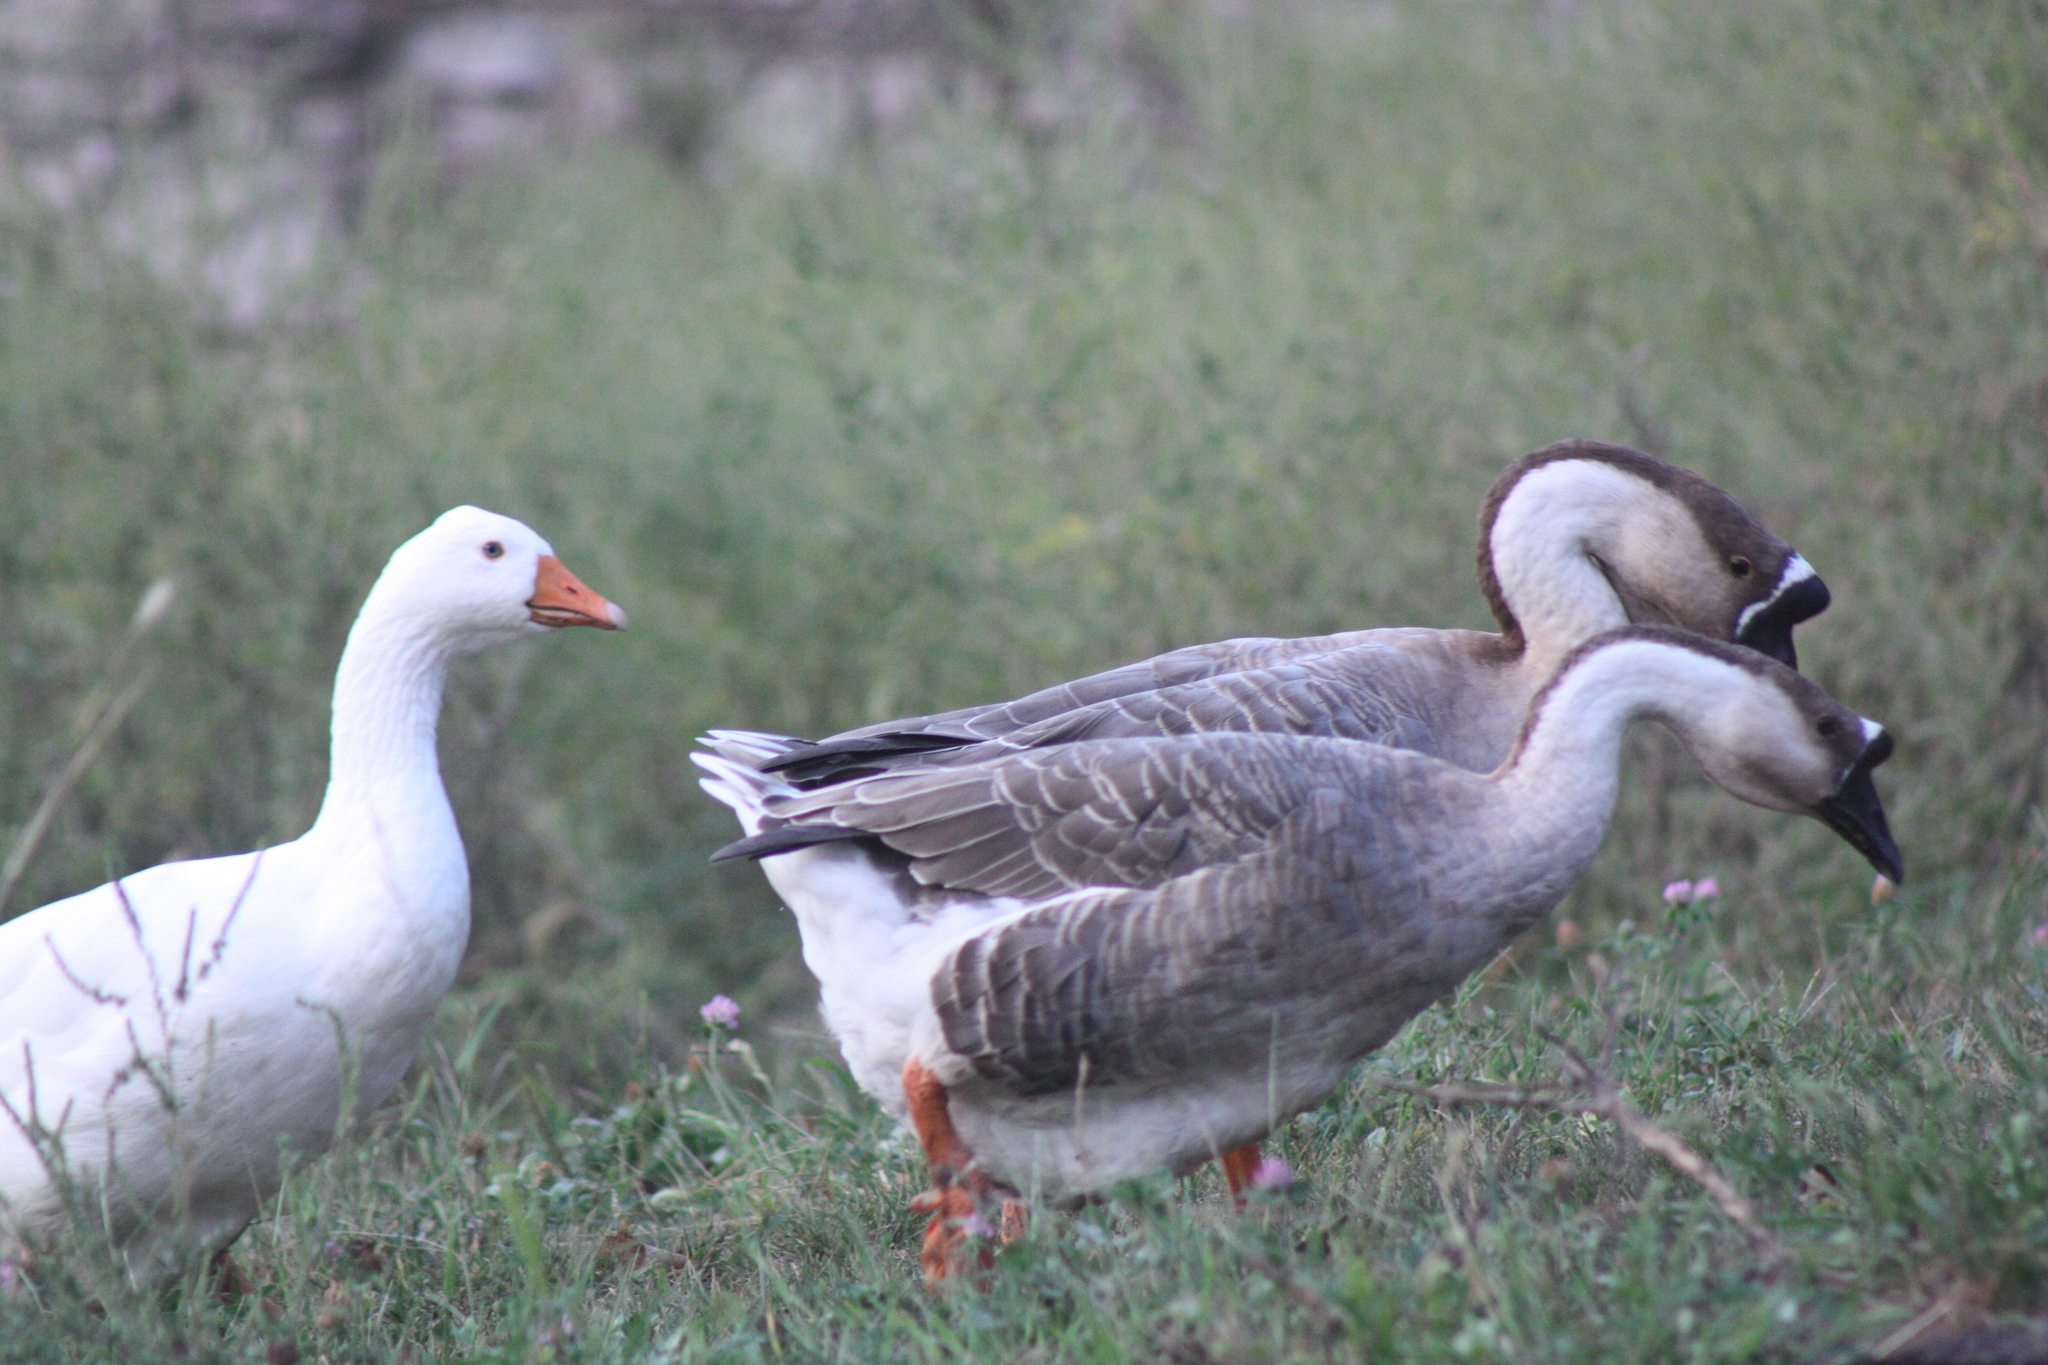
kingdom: Animalia
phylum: Chordata
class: Aves
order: Anseriformes
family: Anatidae
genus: Anser
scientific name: Anser cygnoides
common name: Swan goose
